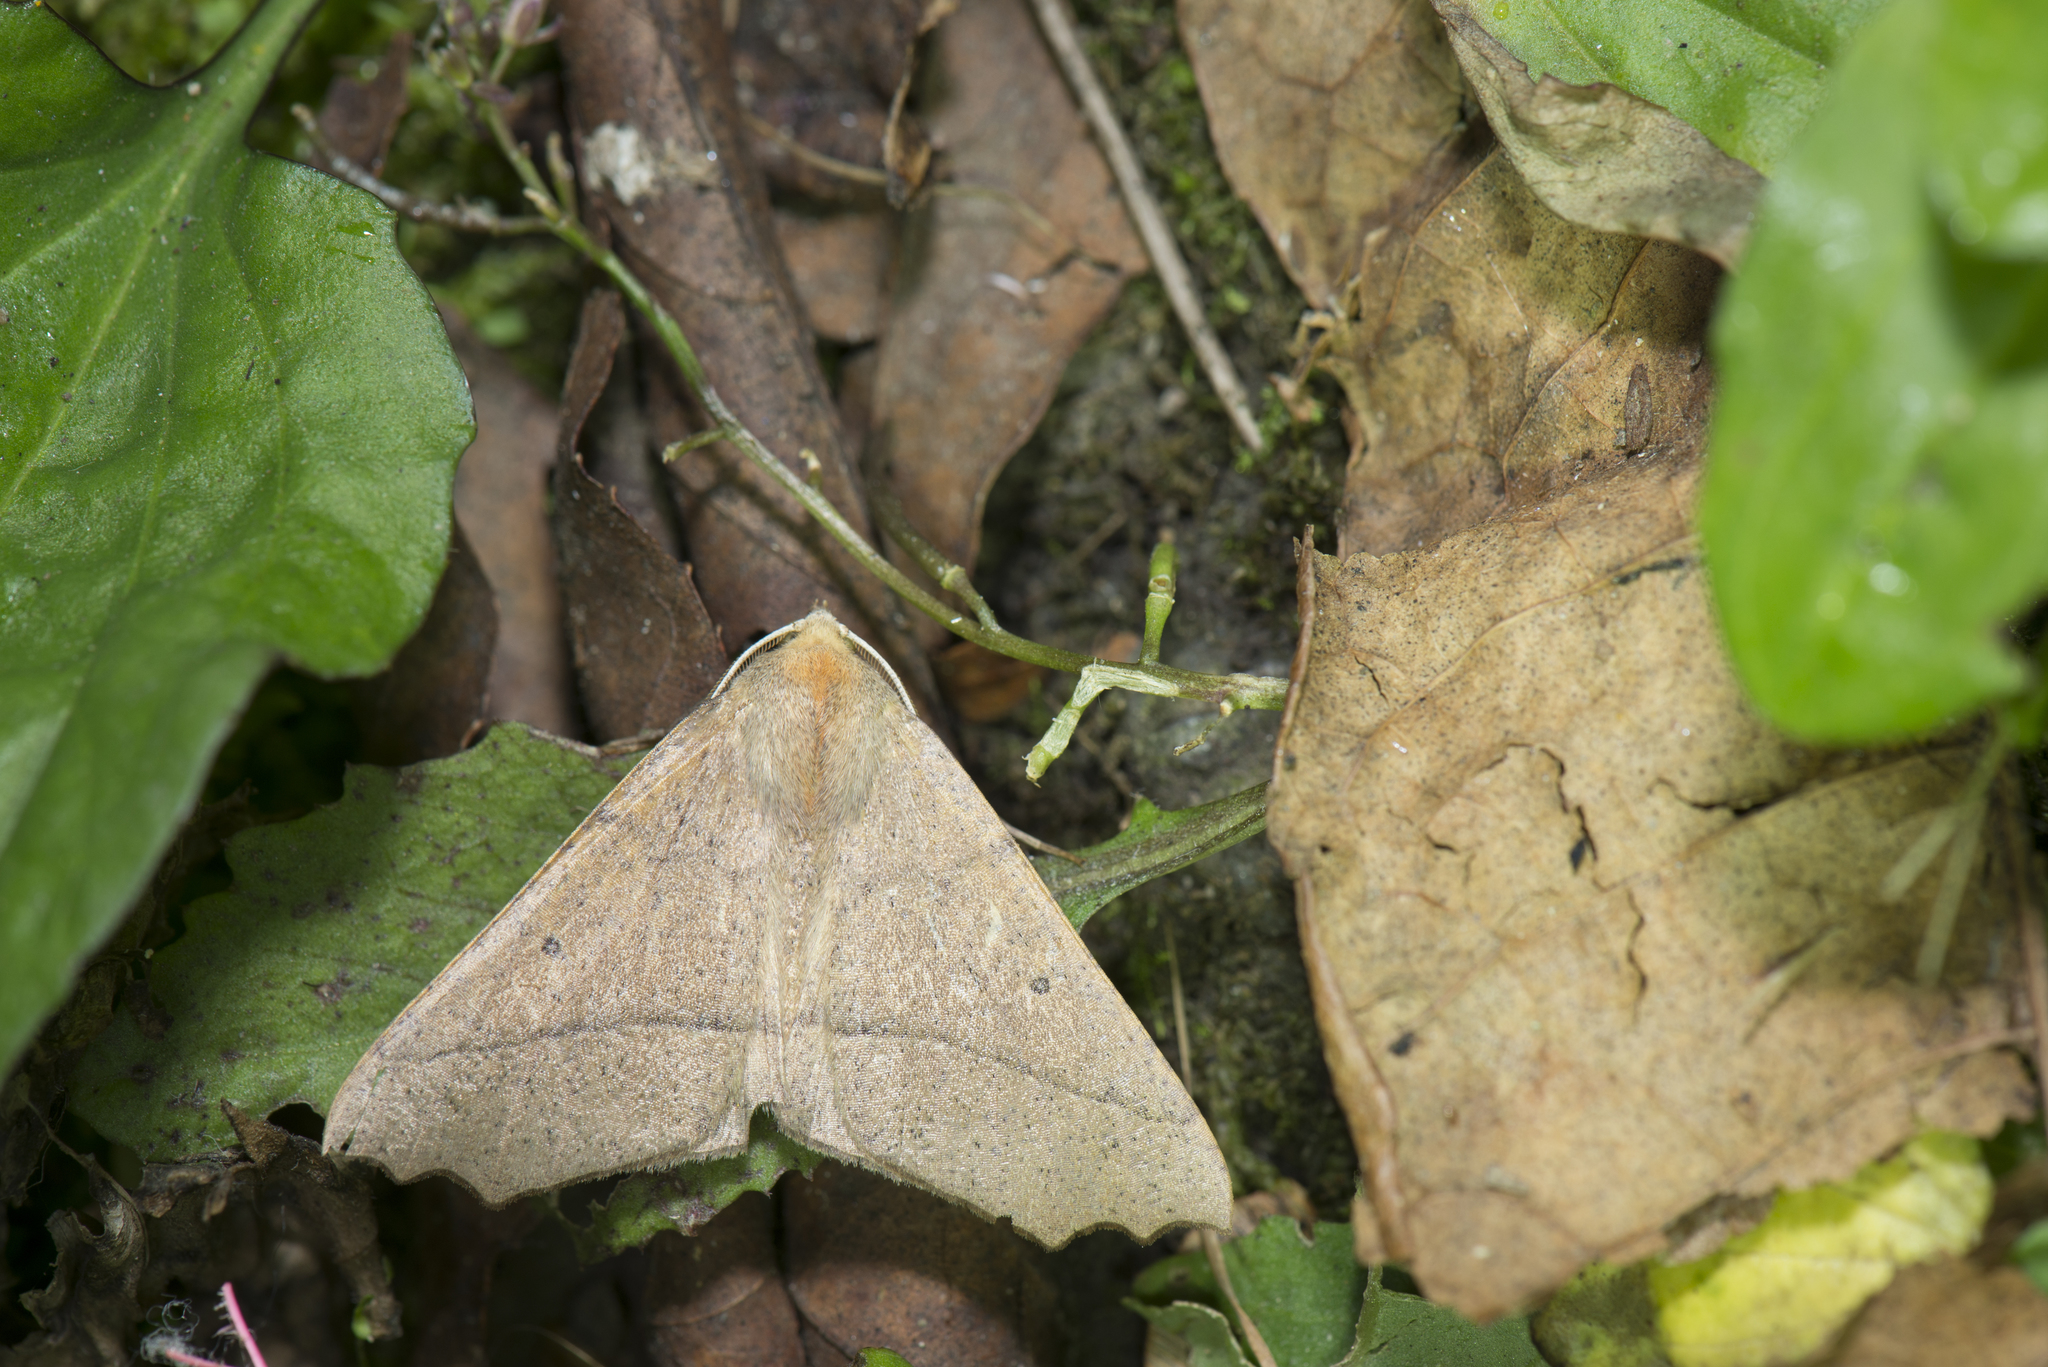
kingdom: Animalia
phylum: Arthropoda
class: Insecta
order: Lepidoptera
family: Geometridae
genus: Odontopera
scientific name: Odontopera bilinearia
